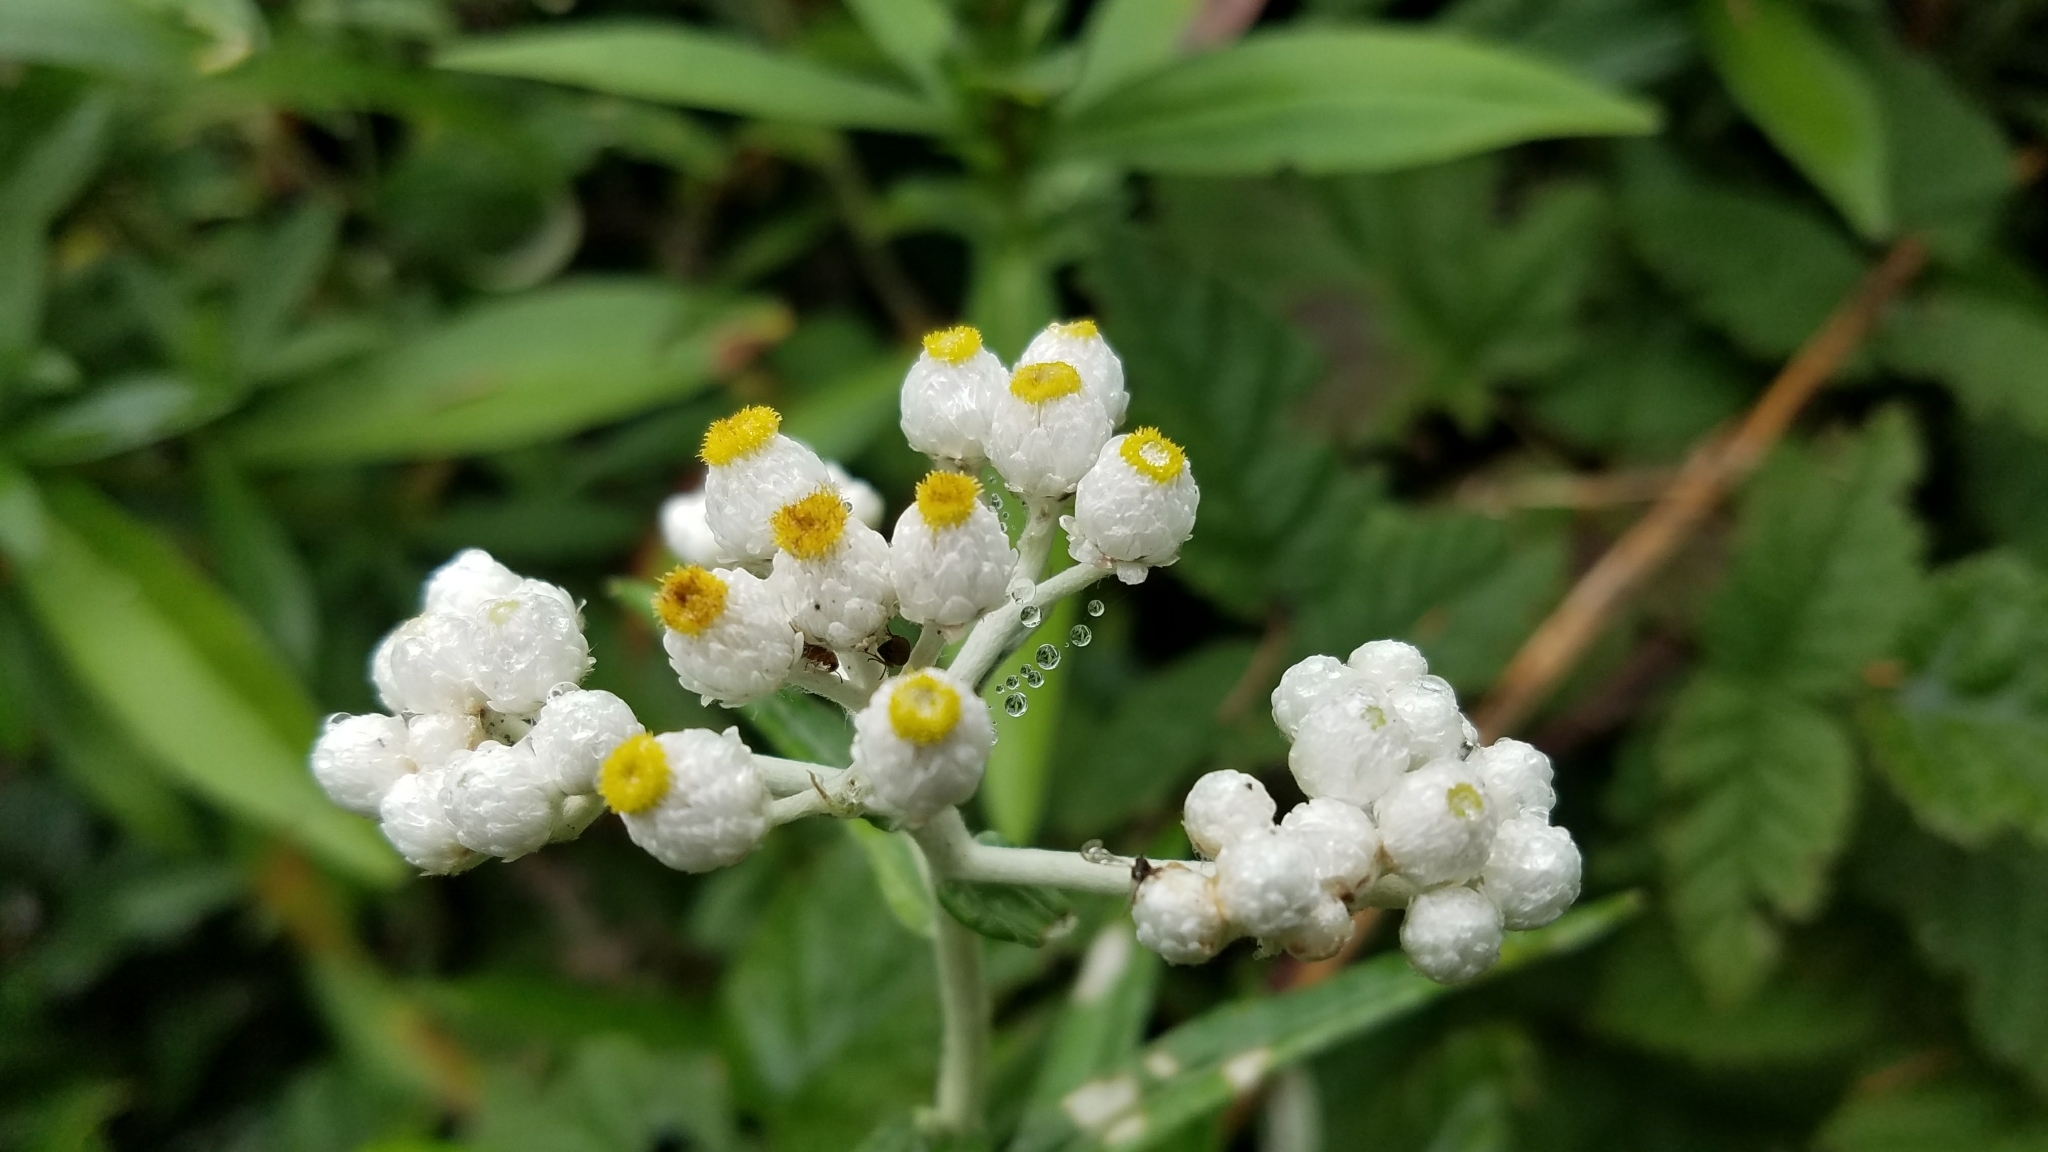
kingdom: Plantae
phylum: Tracheophyta
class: Magnoliopsida
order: Asterales
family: Asteraceae
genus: Anaphalis
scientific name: Anaphalis margaritacea
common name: Pearly everlasting
